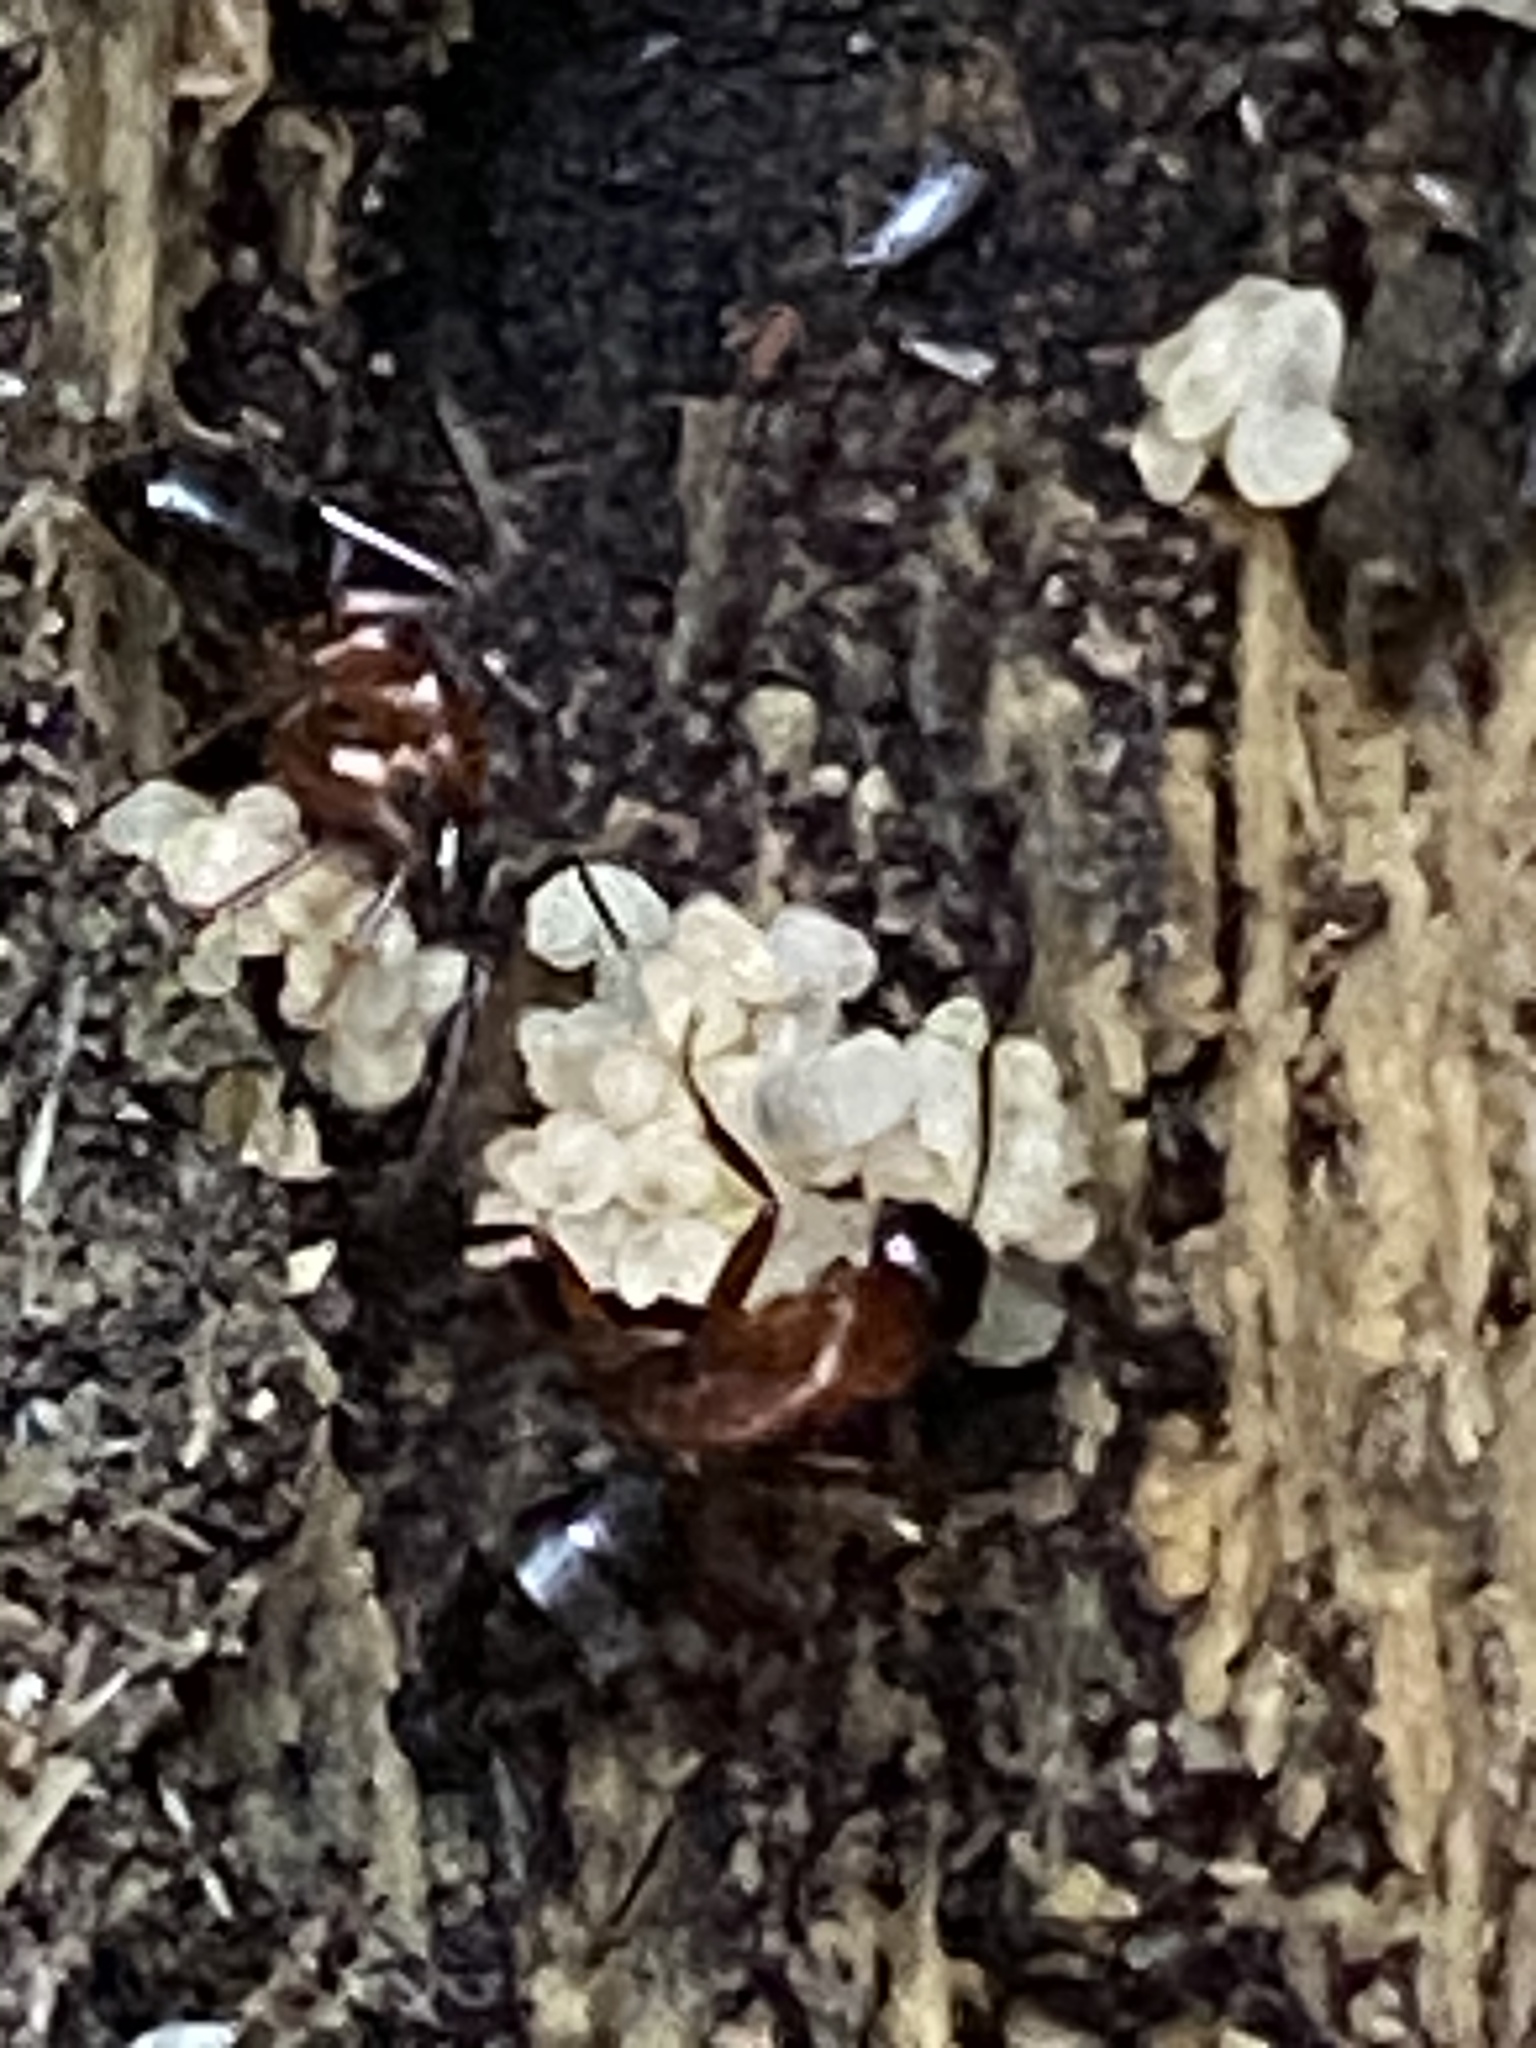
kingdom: Animalia
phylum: Arthropoda
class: Insecta
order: Hymenoptera
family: Formicidae
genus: Camponotus
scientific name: Camponotus vicinus
